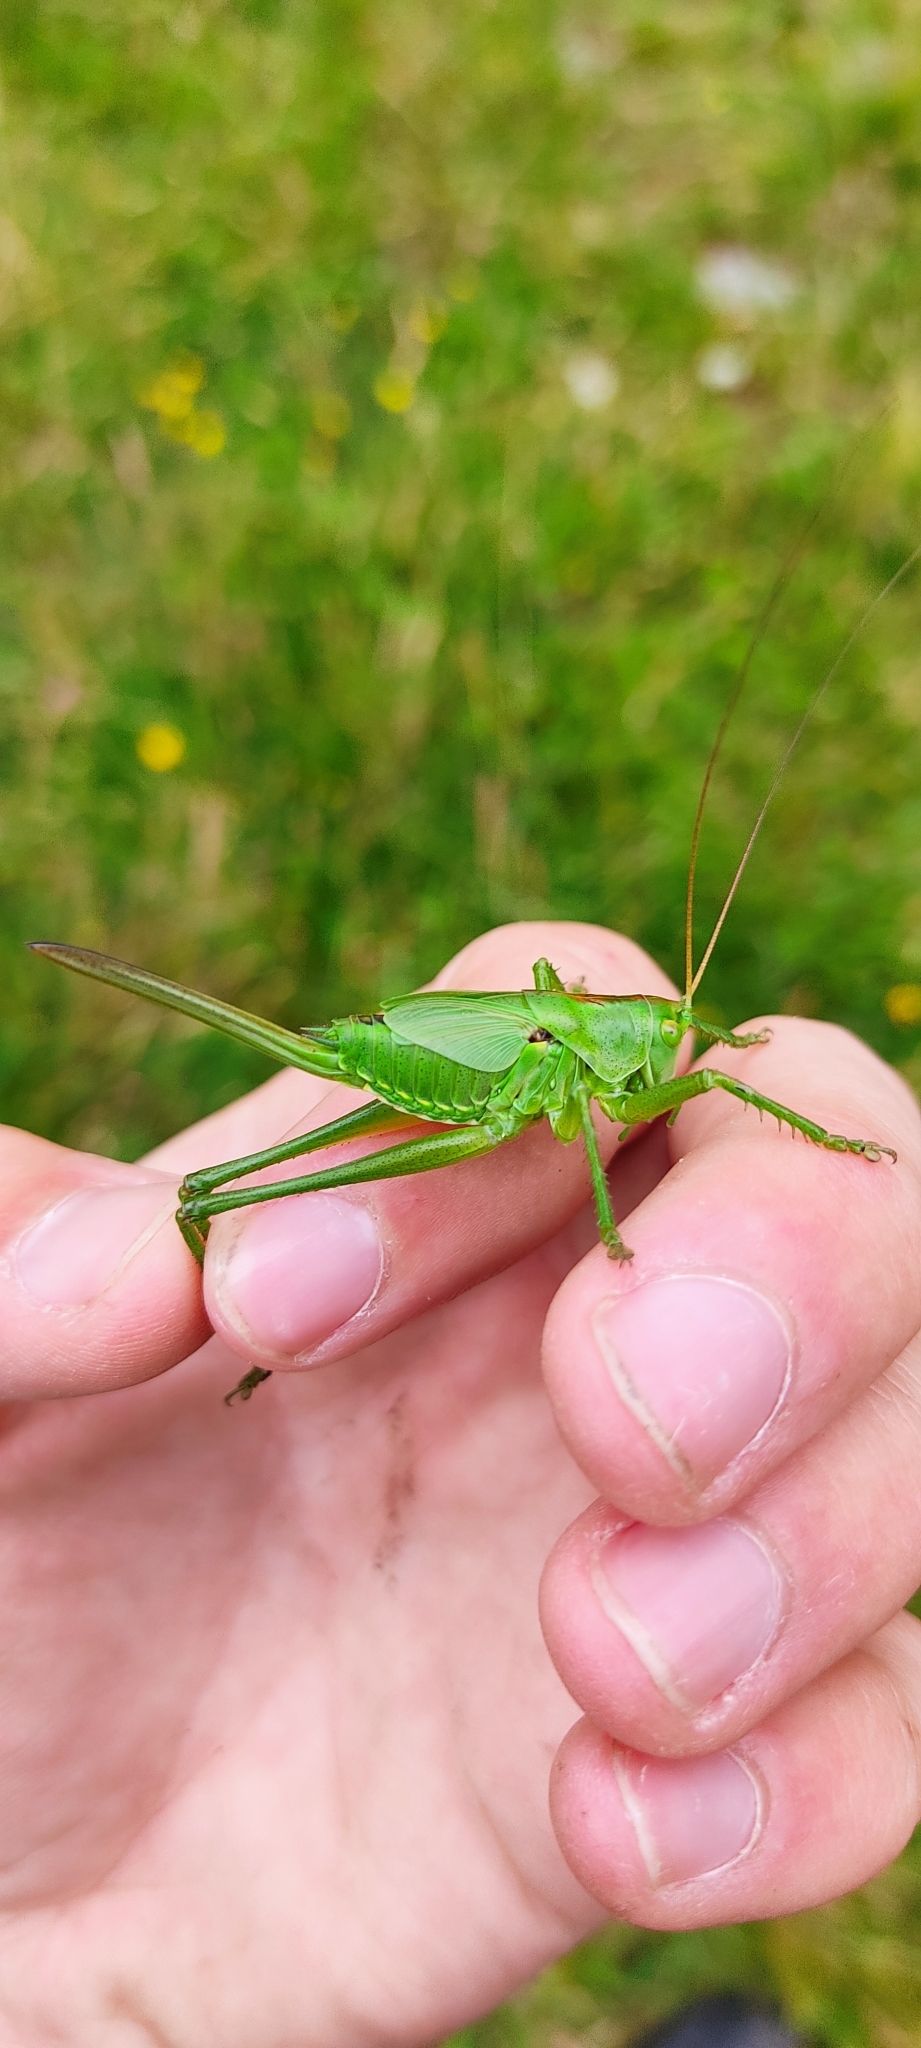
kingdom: Animalia
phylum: Arthropoda
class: Insecta
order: Orthoptera
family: Tettigoniidae
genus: Tettigonia
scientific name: Tettigonia viridissima
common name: Great green bush-cricket
